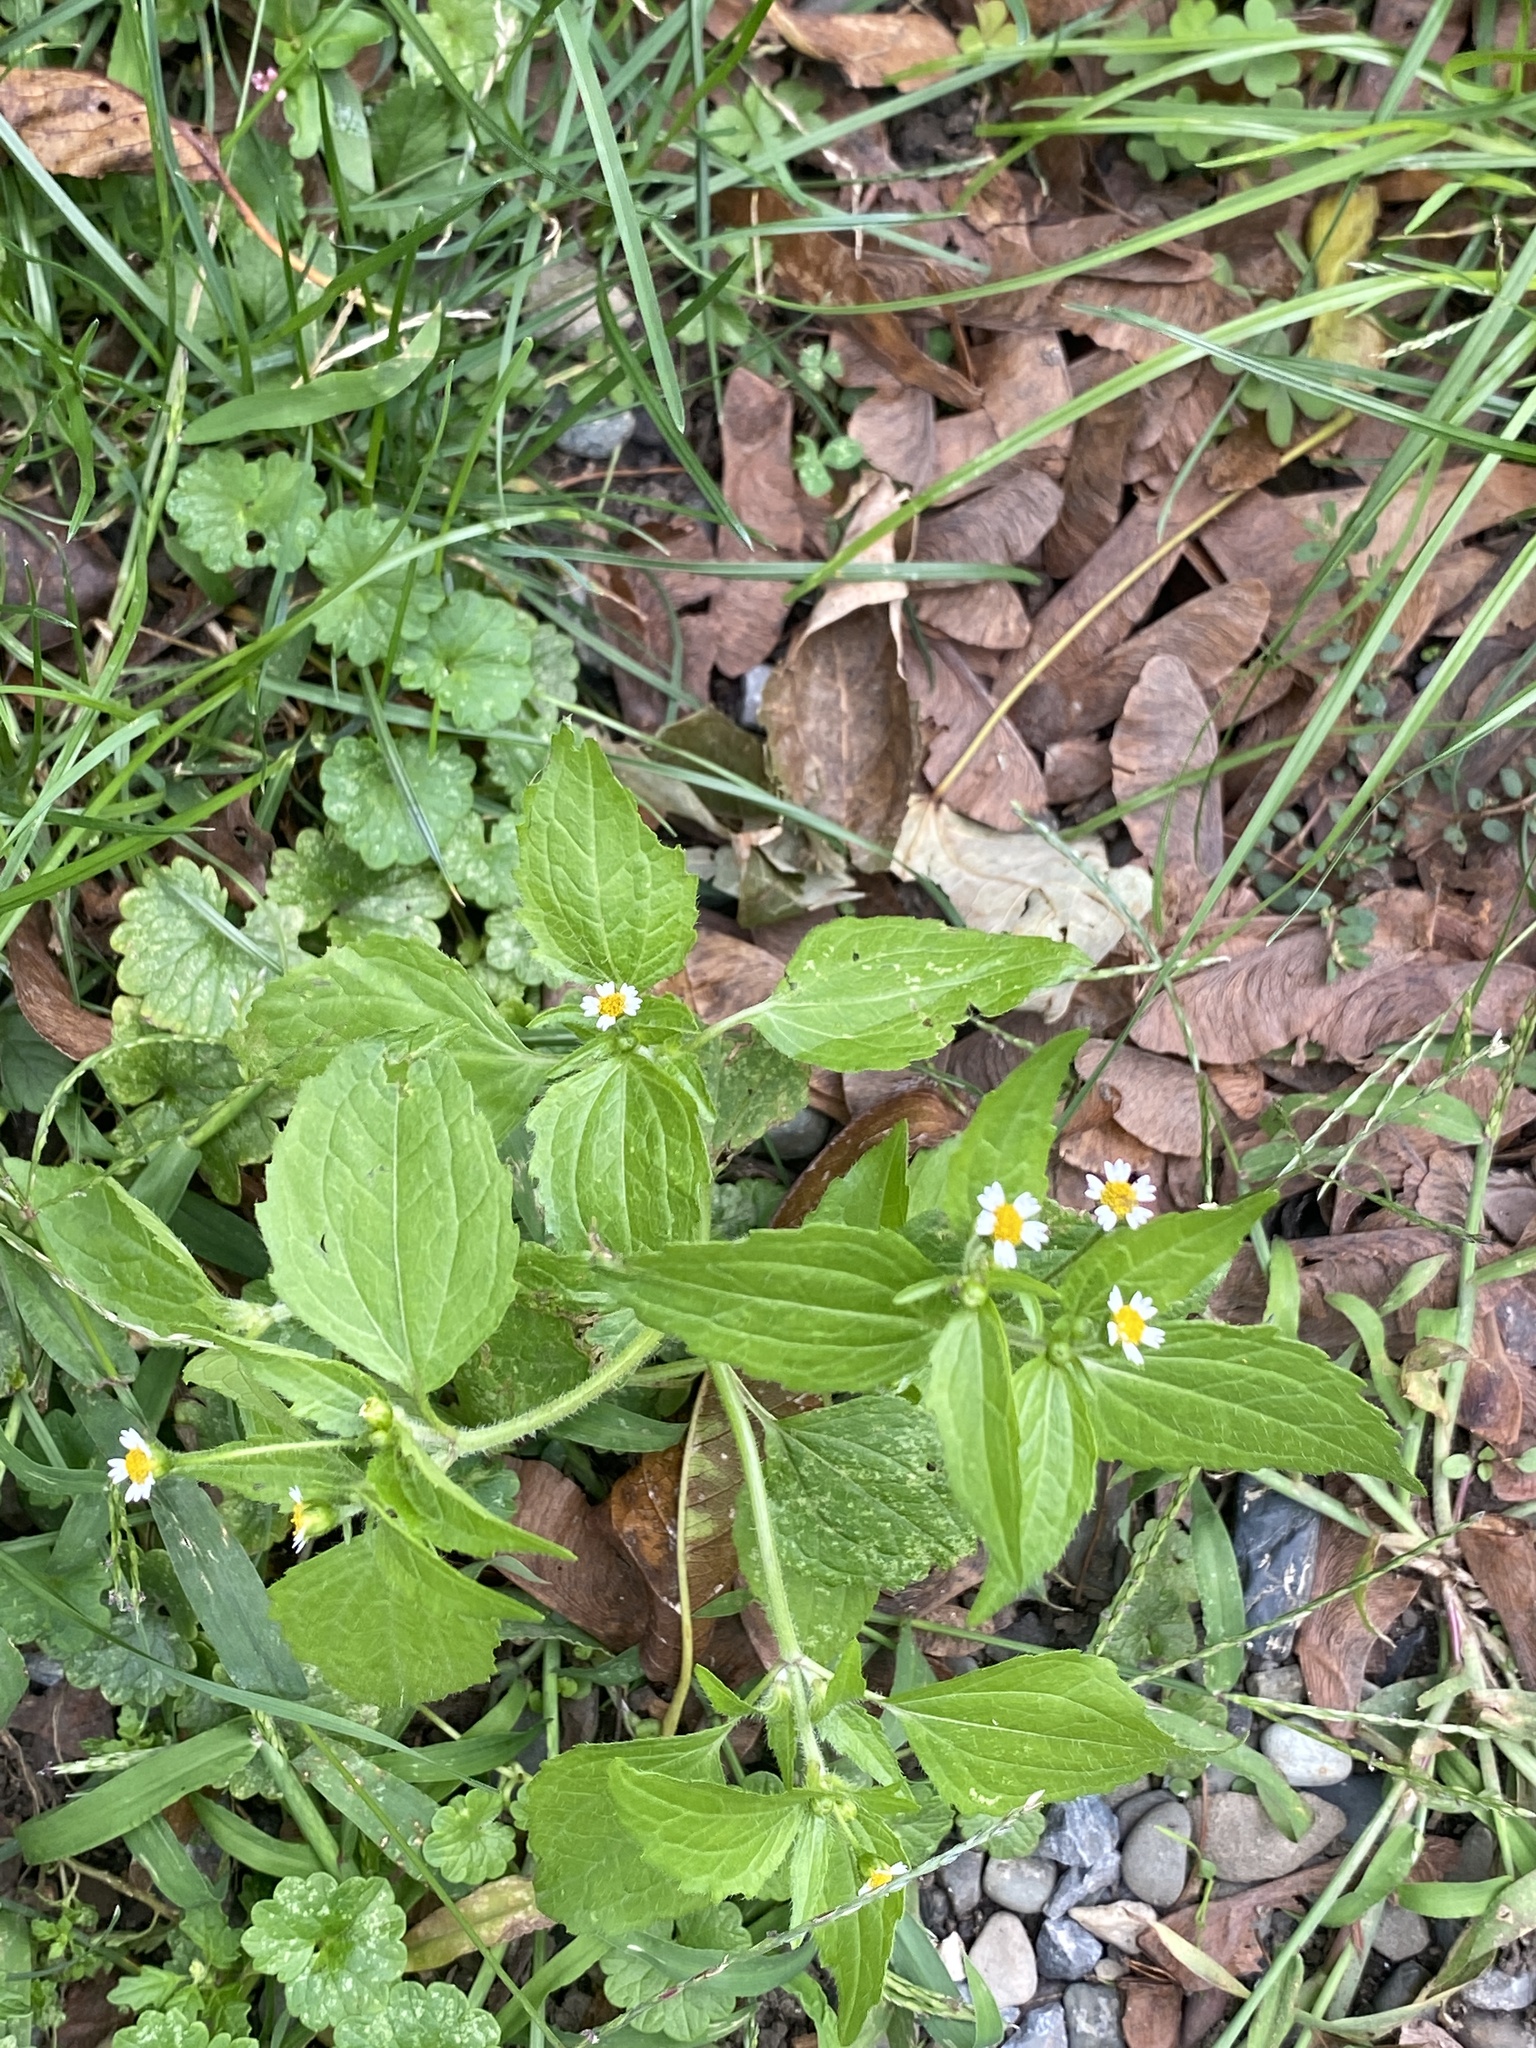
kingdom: Plantae
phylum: Tracheophyta
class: Magnoliopsida
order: Asterales
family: Asteraceae
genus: Galinsoga
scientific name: Galinsoga quadriradiata
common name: Shaggy soldier
